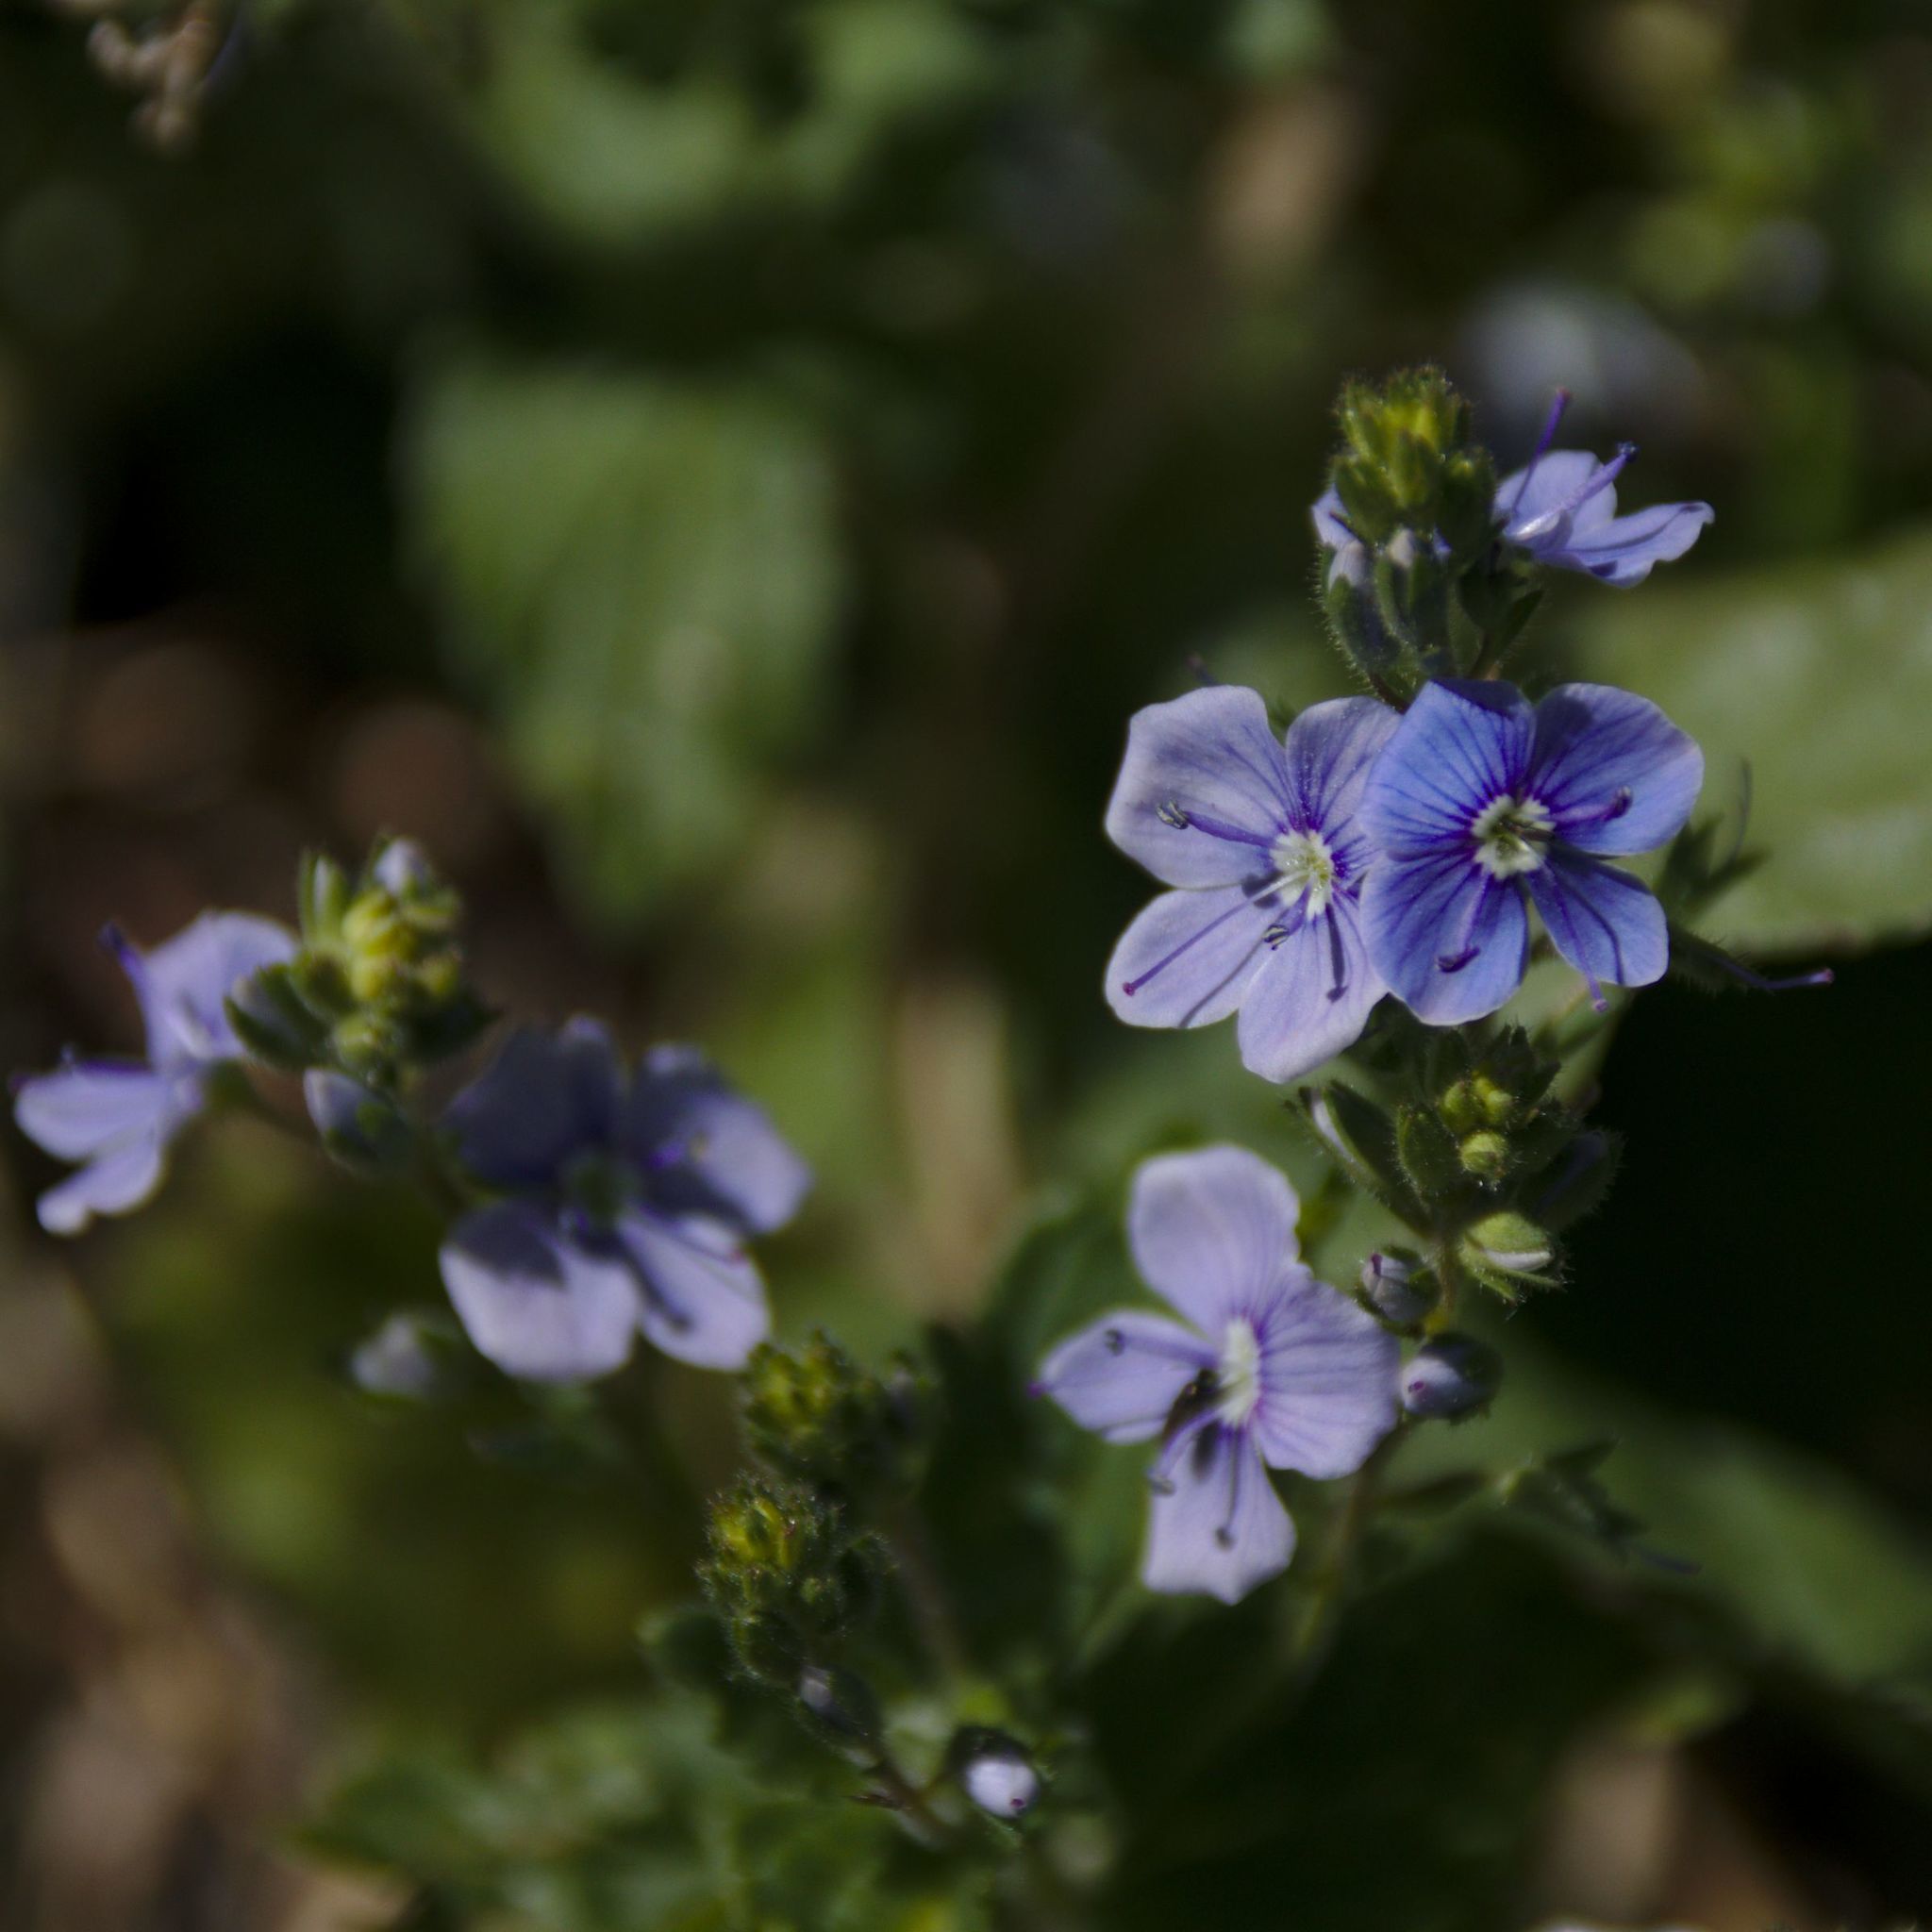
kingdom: Plantae
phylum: Tracheophyta
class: Magnoliopsida
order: Lamiales
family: Plantaginaceae
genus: Veronica
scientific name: Veronica chamaedrys
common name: Germander speedwell
